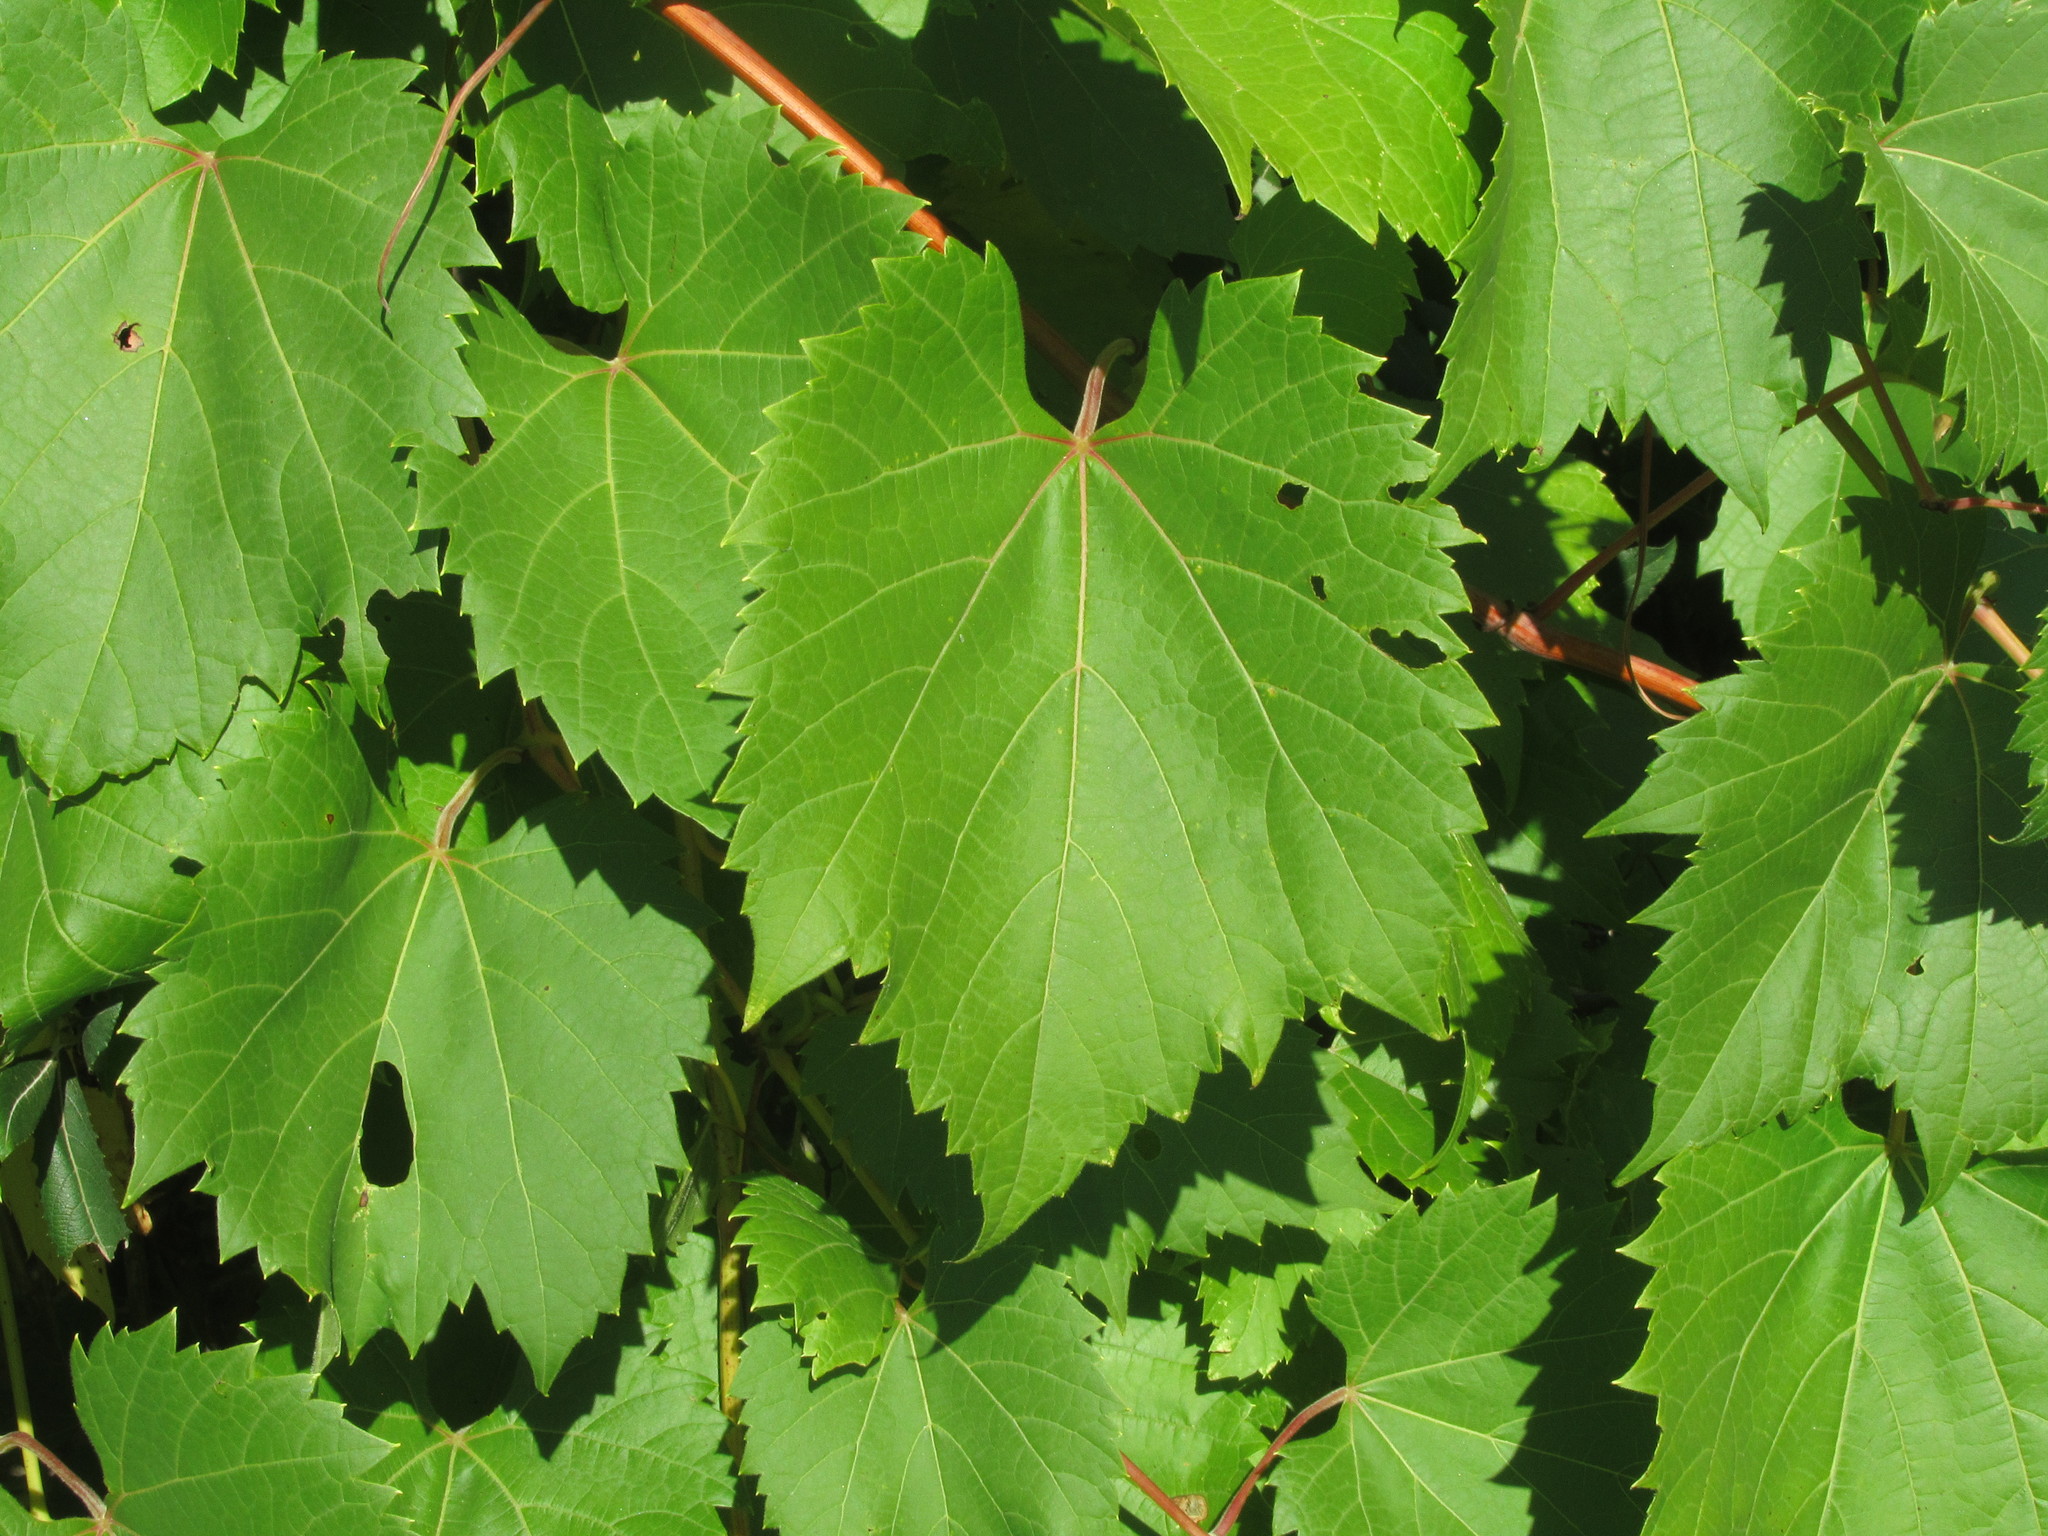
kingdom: Plantae
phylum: Tracheophyta
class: Magnoliopsida
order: Vitales
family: Vitaceae
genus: Vitis
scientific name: Vitis riparia
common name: Frost grape
